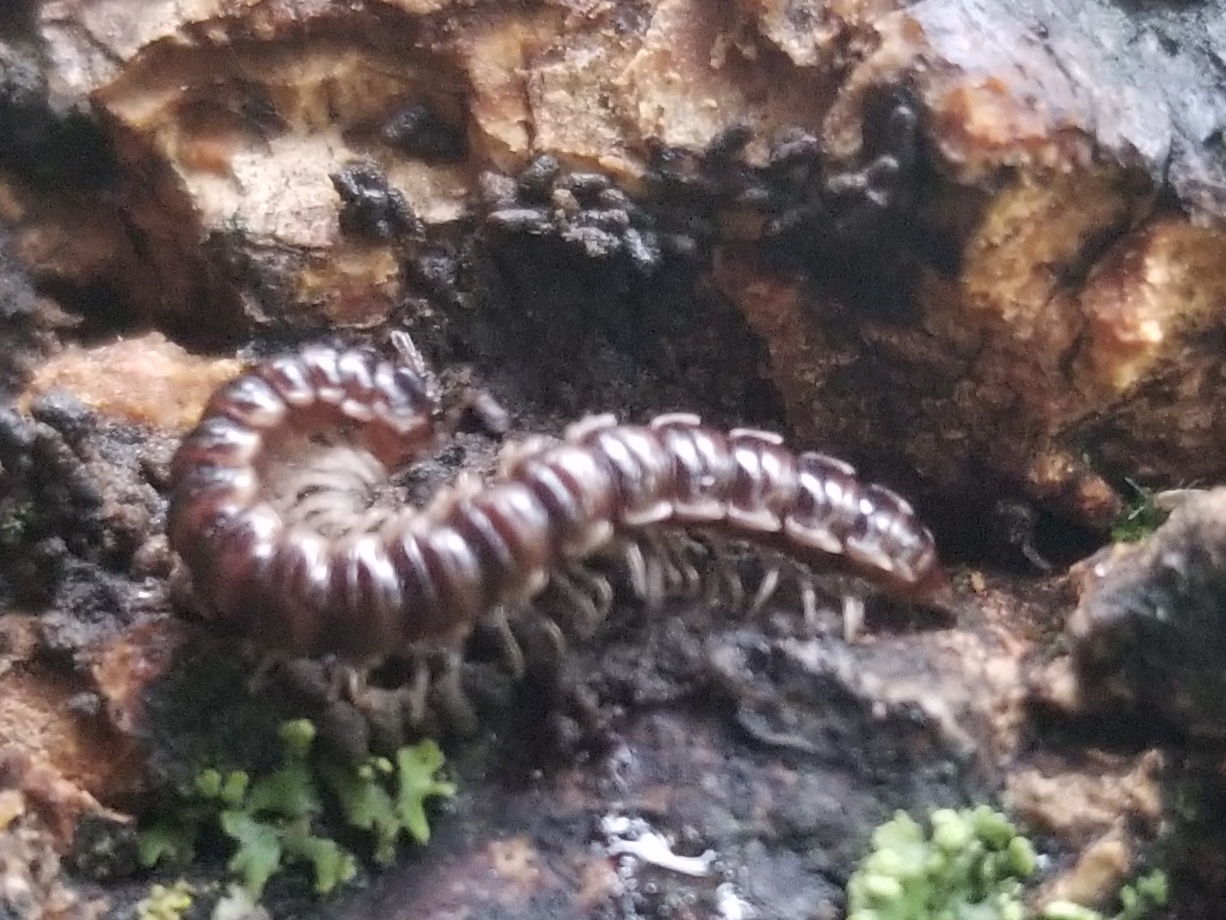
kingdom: Animalia
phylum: Arthropoda
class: Diplopoda
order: Polydesmida
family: Paradoxosomatidae
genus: Oxidus
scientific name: Oxidus gracilis
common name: Greenhouse millipede
